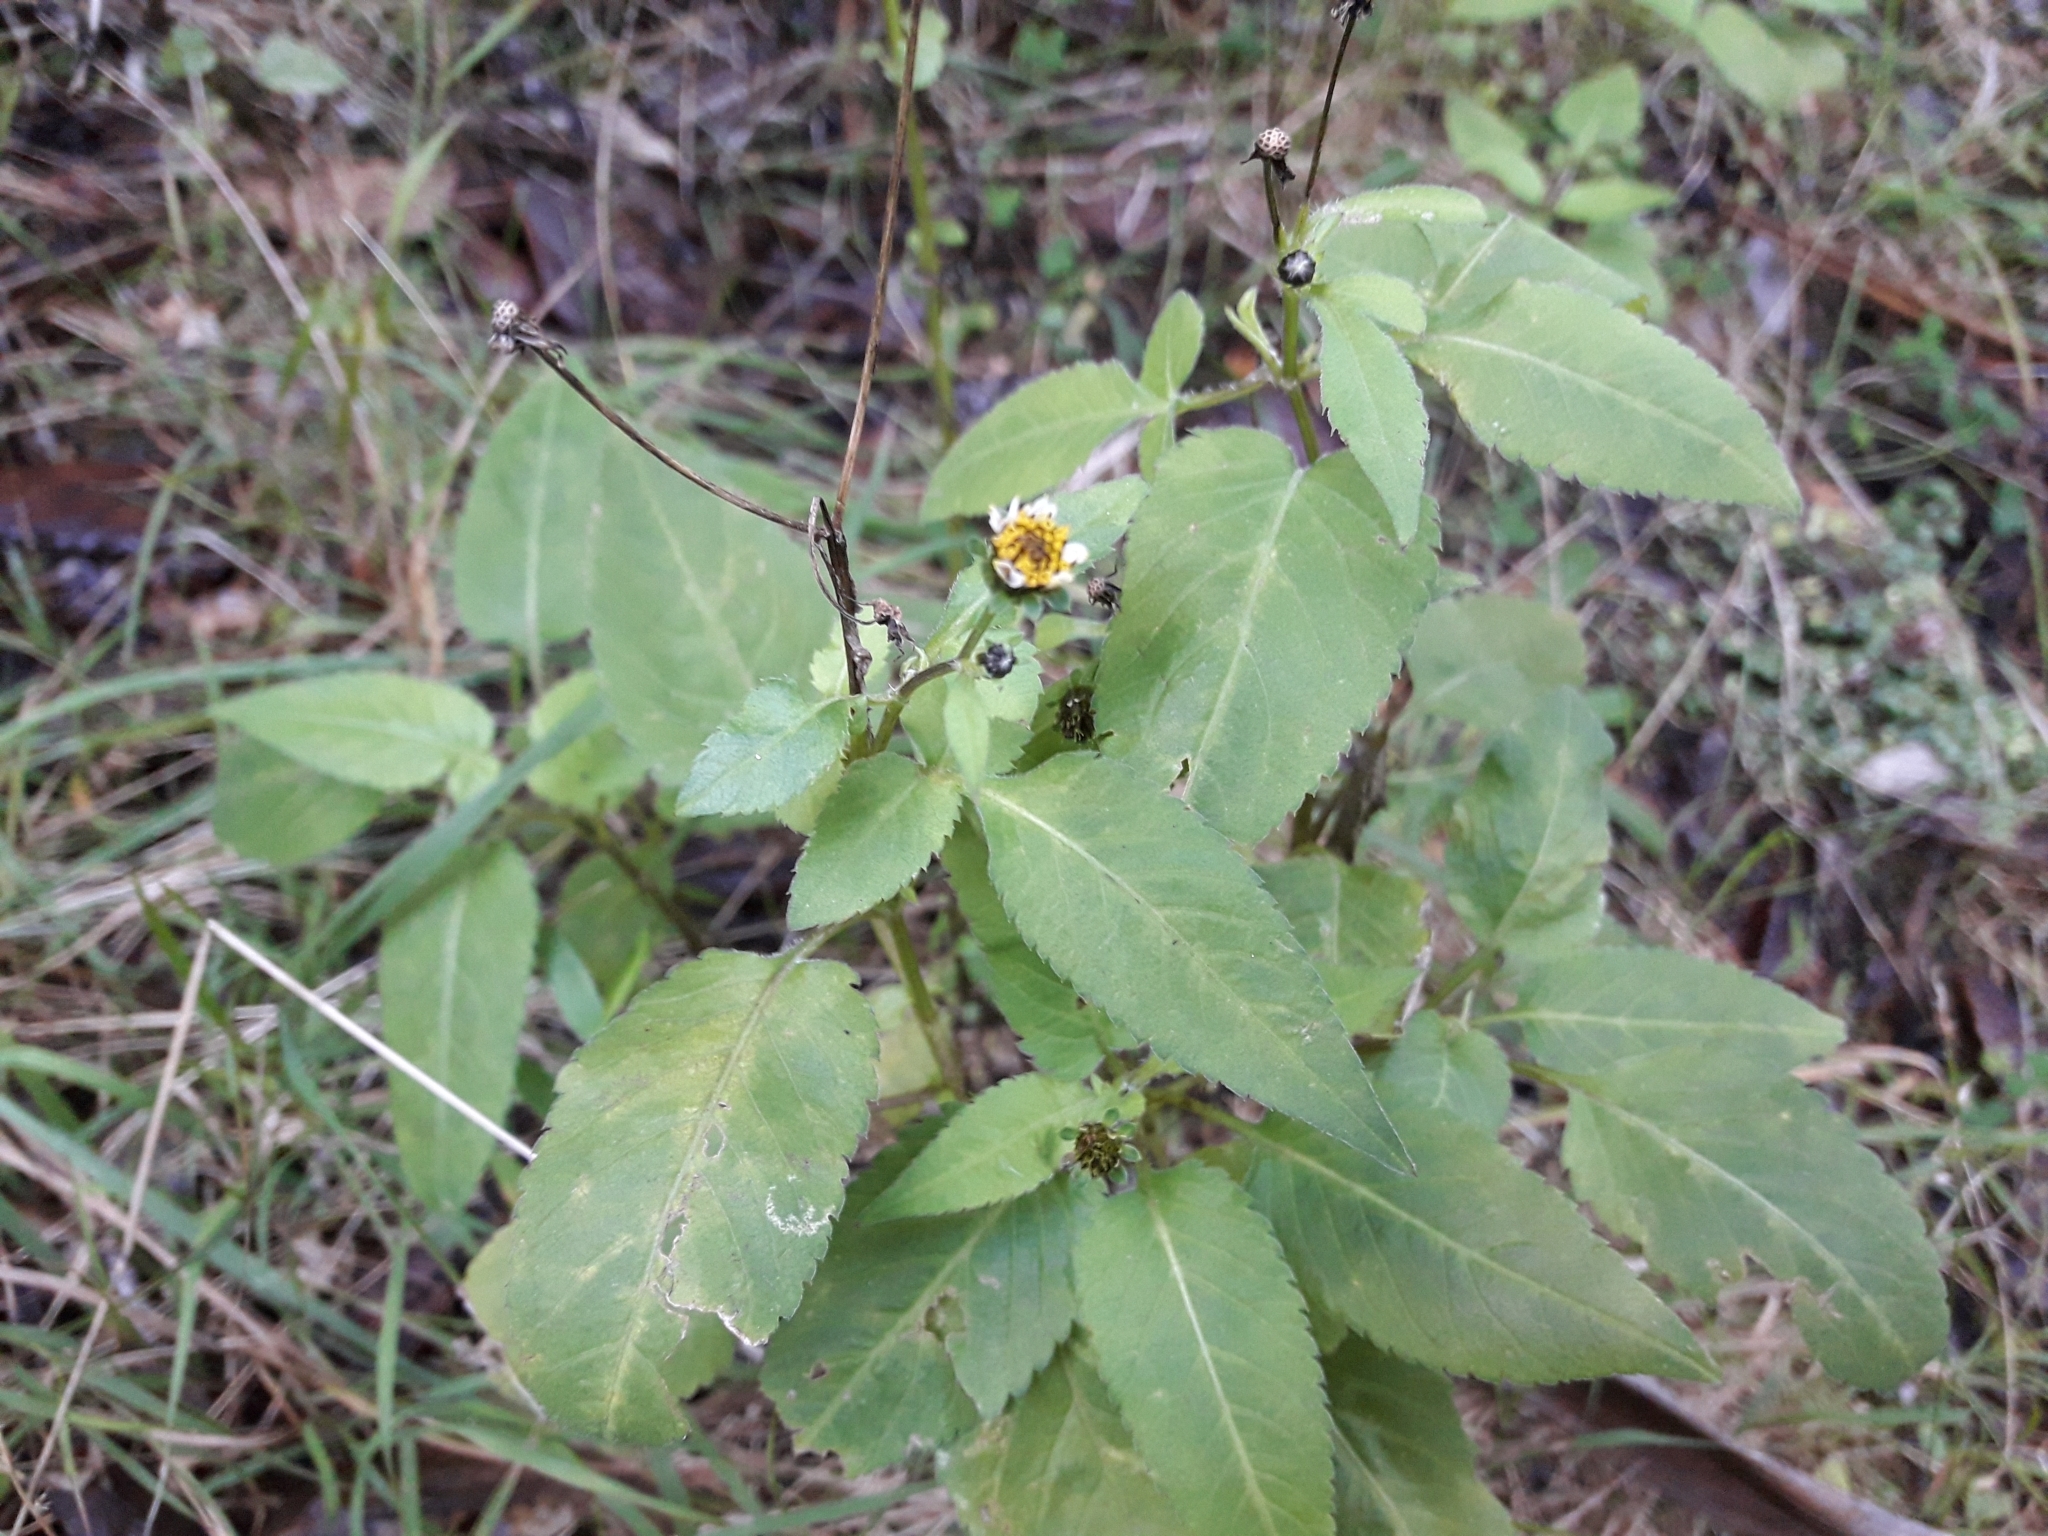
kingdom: Plantae
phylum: Tracheophyta
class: Magnoliopsida
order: Asterales
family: Asteraceae
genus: Bidens
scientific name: Bidens pilosa
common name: Black-jack
